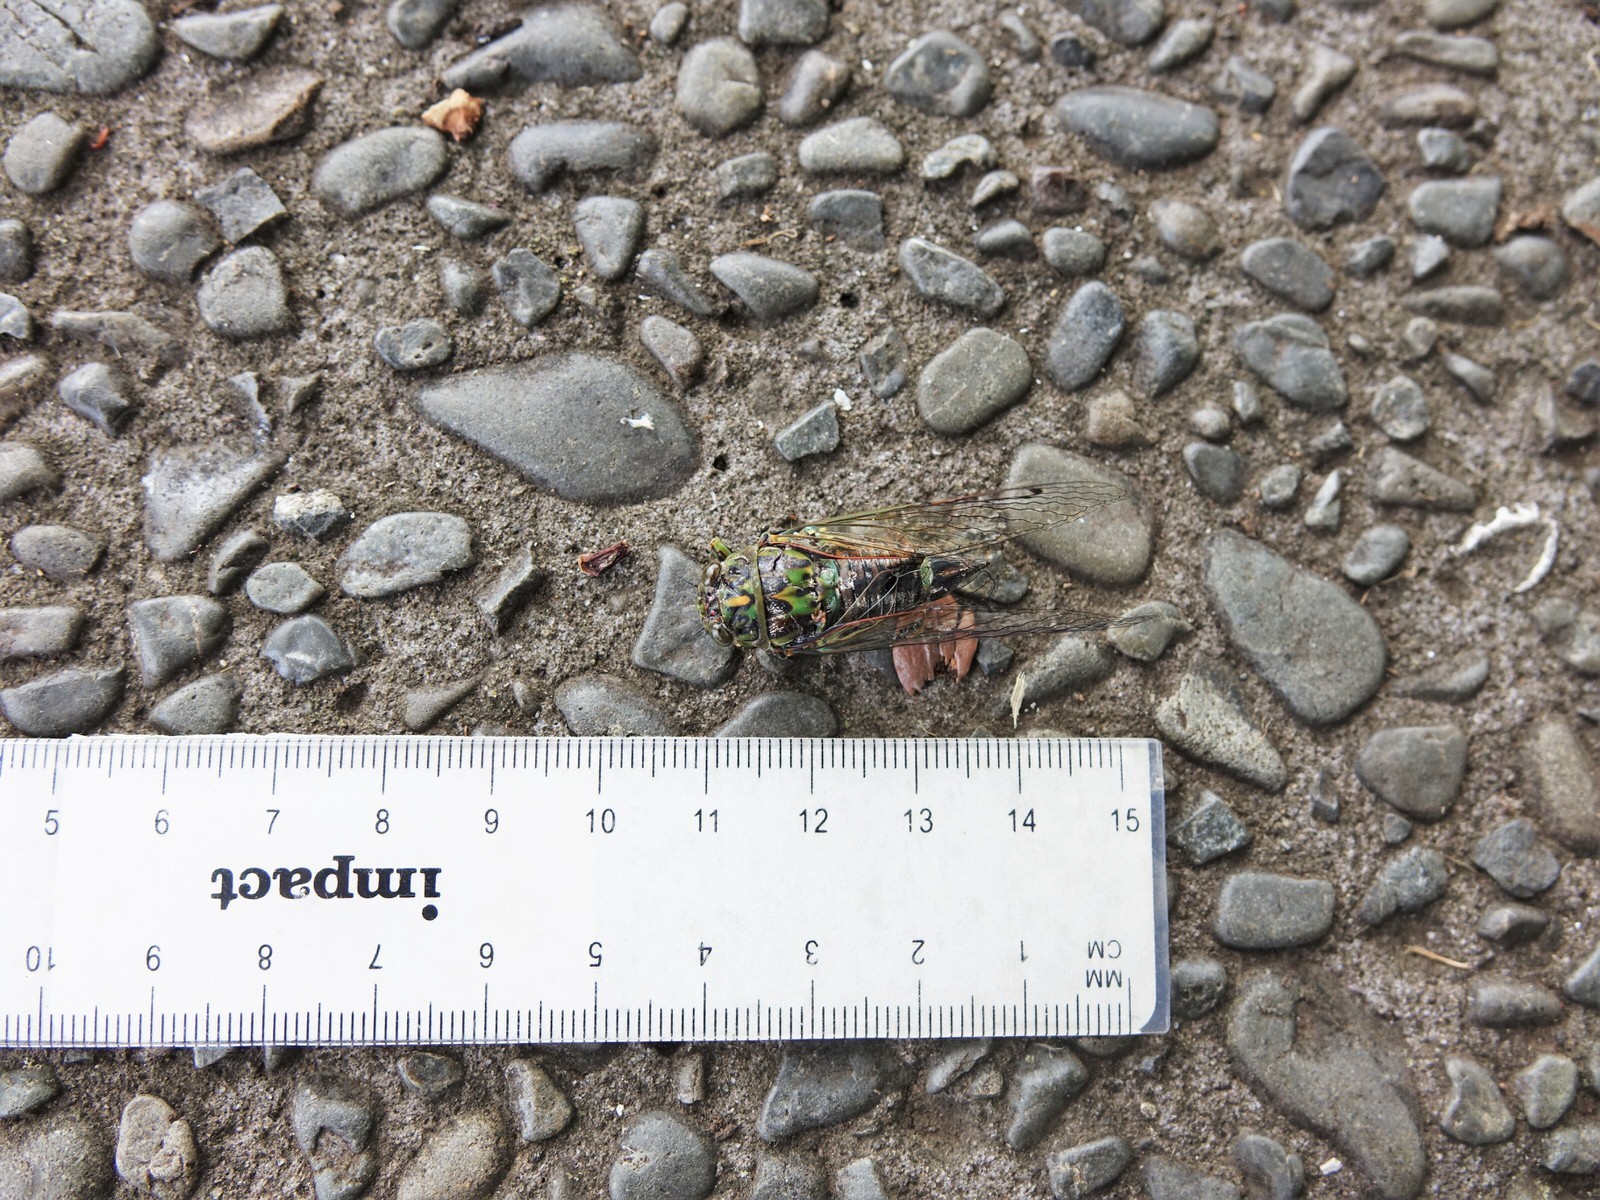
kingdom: Animalia
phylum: Arthropoda
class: Insecta
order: Hemiptera
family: Cicadidae
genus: Amphipsalta
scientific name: Amphipsalta zelandica
